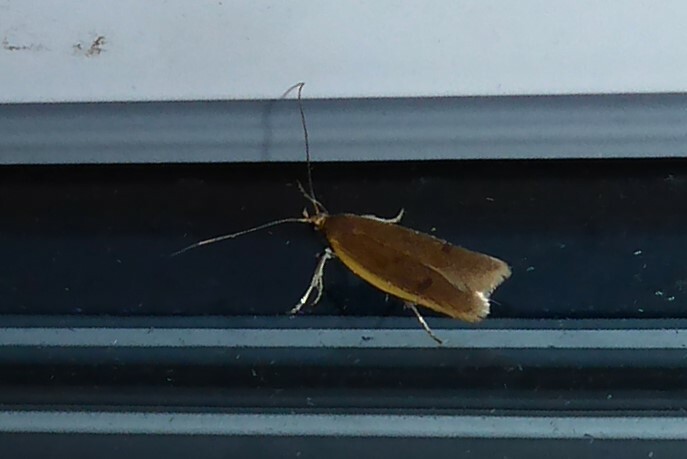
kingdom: Animalia
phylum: Arthropoda
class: Insecta
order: Lepidoptera
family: Oecophoridae
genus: Gymnobathra
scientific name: Gymnobathra parca
